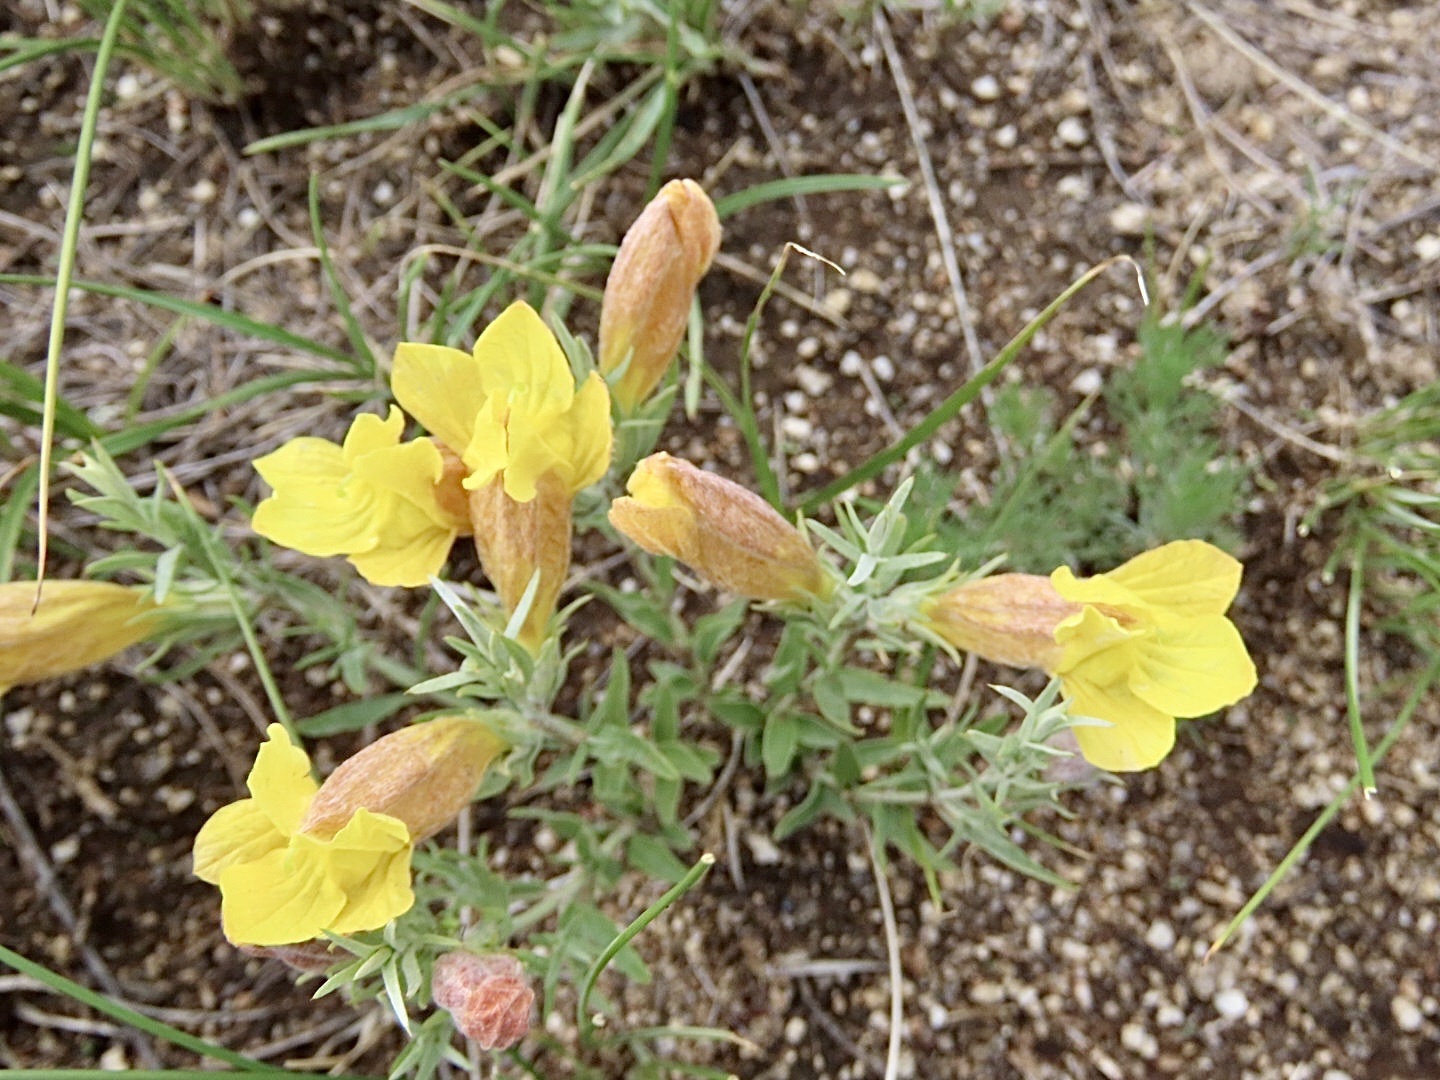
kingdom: Plantae
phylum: Tracheophyta
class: Magnoliopsida
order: Lamiales
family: Orobanchaceae
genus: Cymbaria
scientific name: Cymbaria daurica
